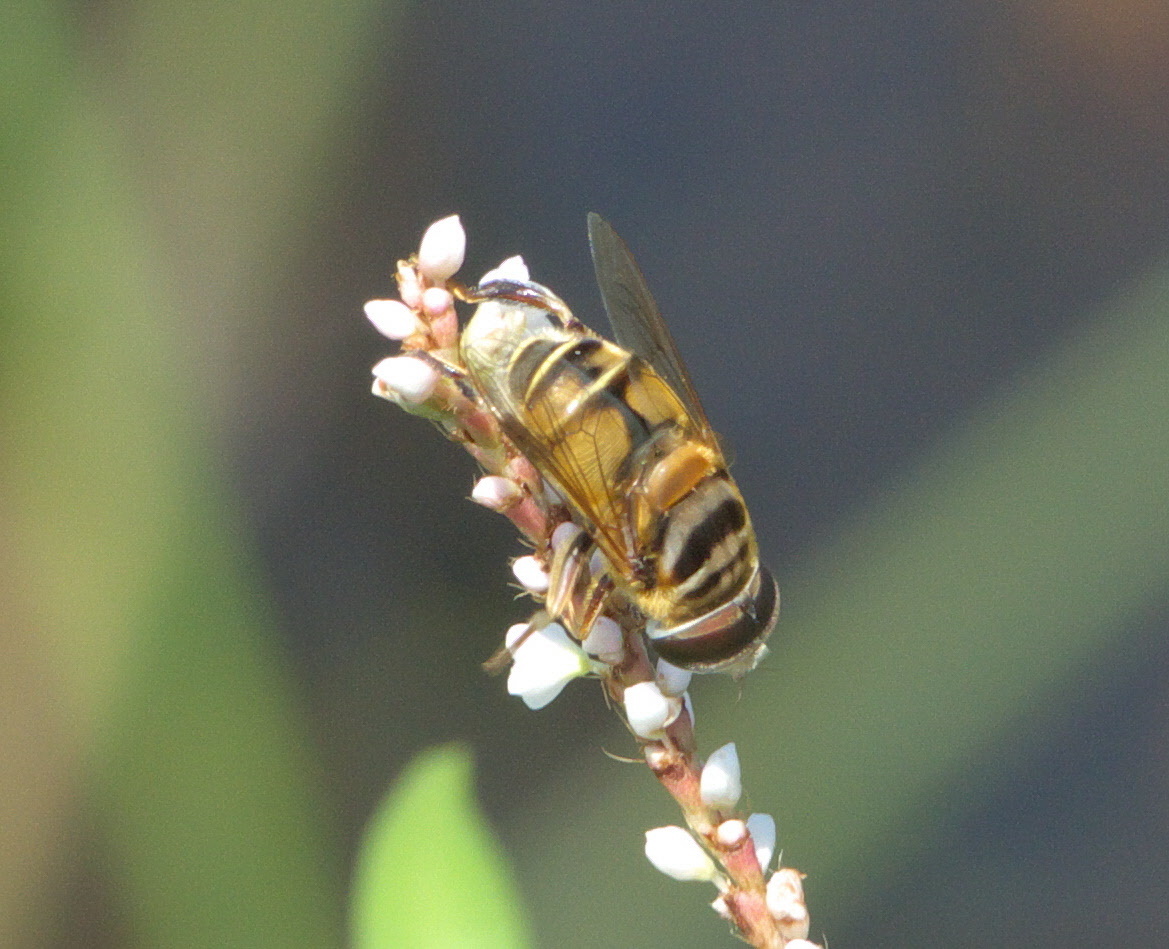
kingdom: Animalia
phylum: Arthropoda
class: Insecta
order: Diptera
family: Syrphidae
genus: Palpada
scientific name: Palpada vinetorum
